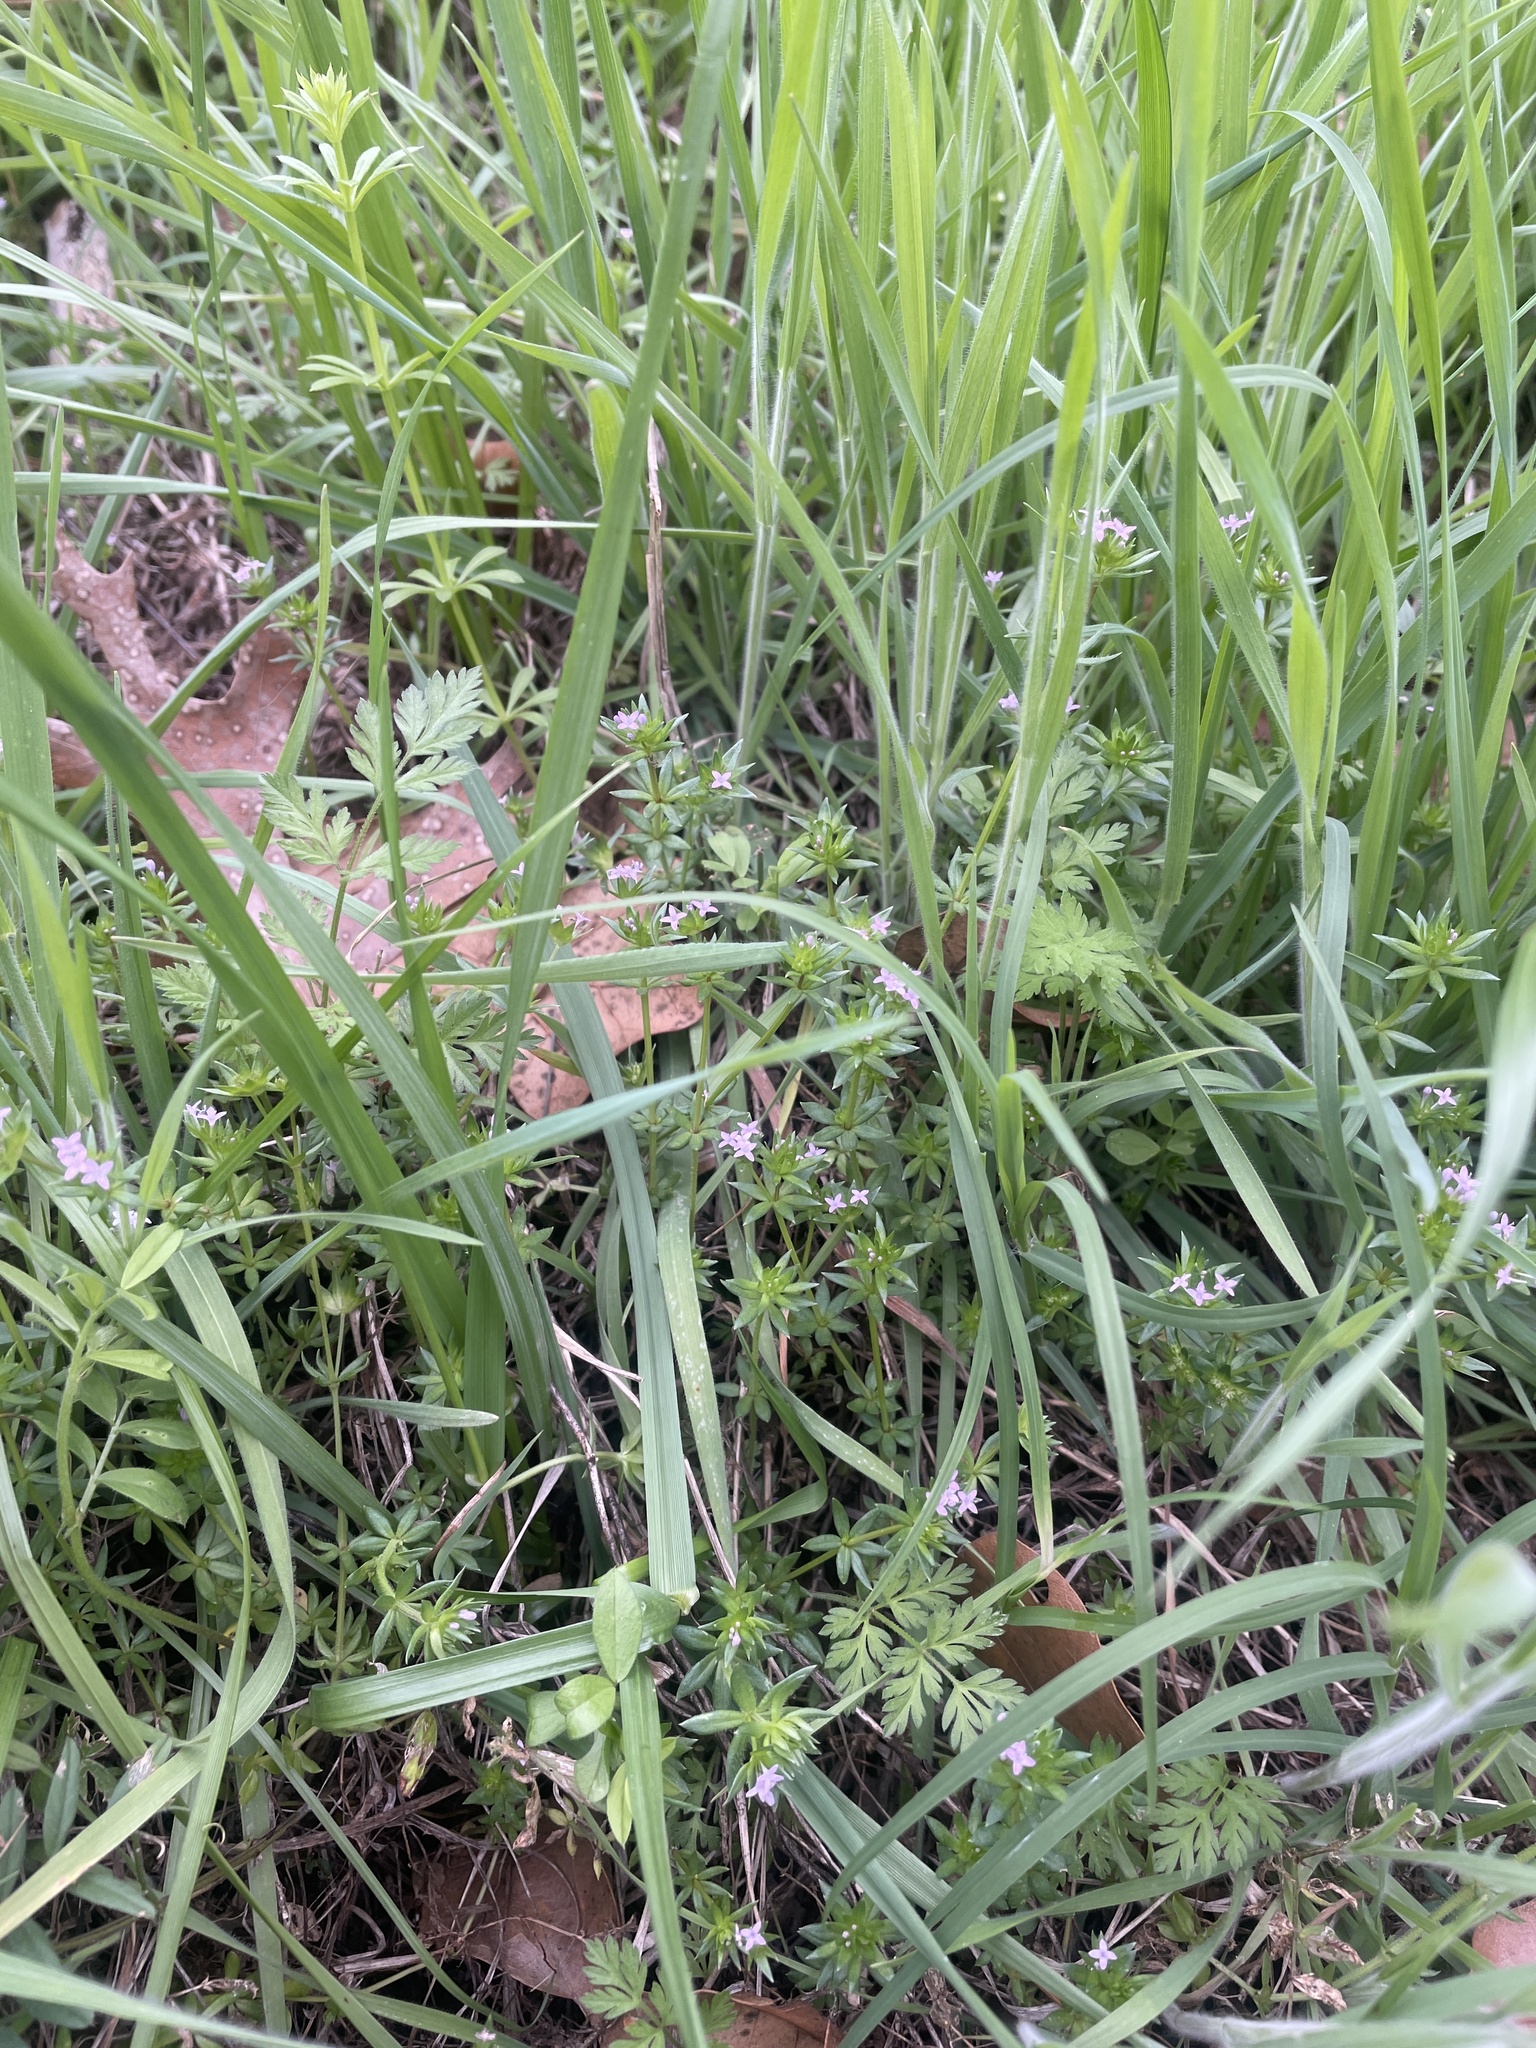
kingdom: Plantae
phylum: Tracheophyta
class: Magnoliopsida
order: Gentianales
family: Rubiaceae
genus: Sherardia
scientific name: Sherardia arvensis
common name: Field madder
